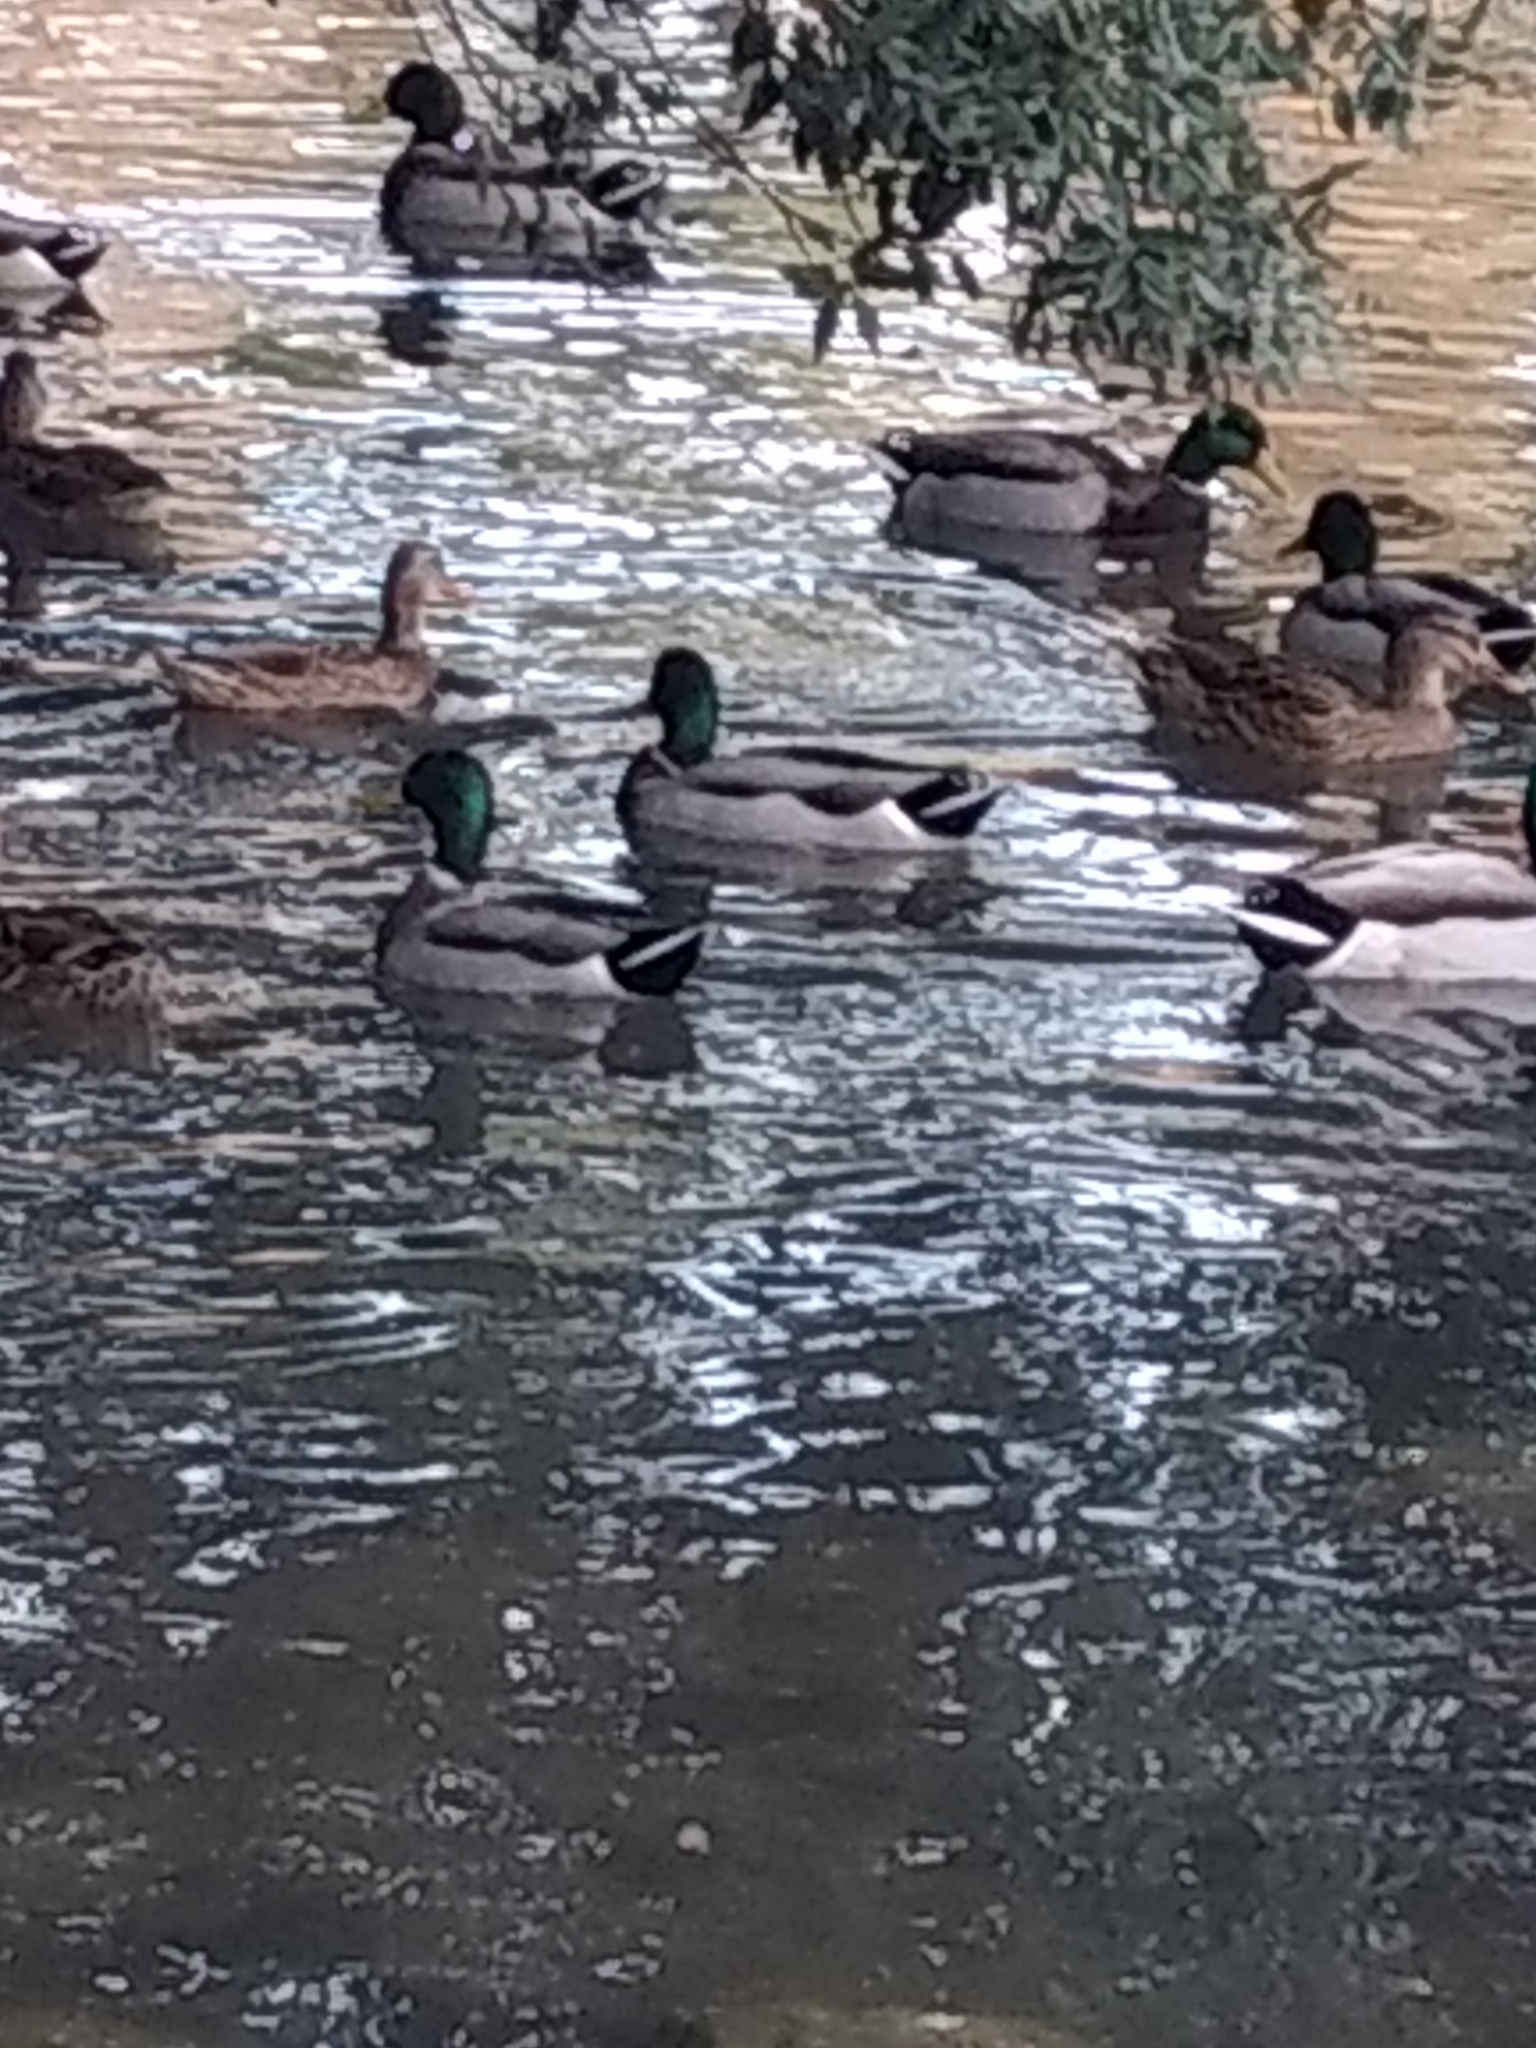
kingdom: Animalia
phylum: Chordata
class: Aves
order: Anseriformes
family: Anatidae
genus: Anas
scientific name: Anas platyrhynchos
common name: Mallard
